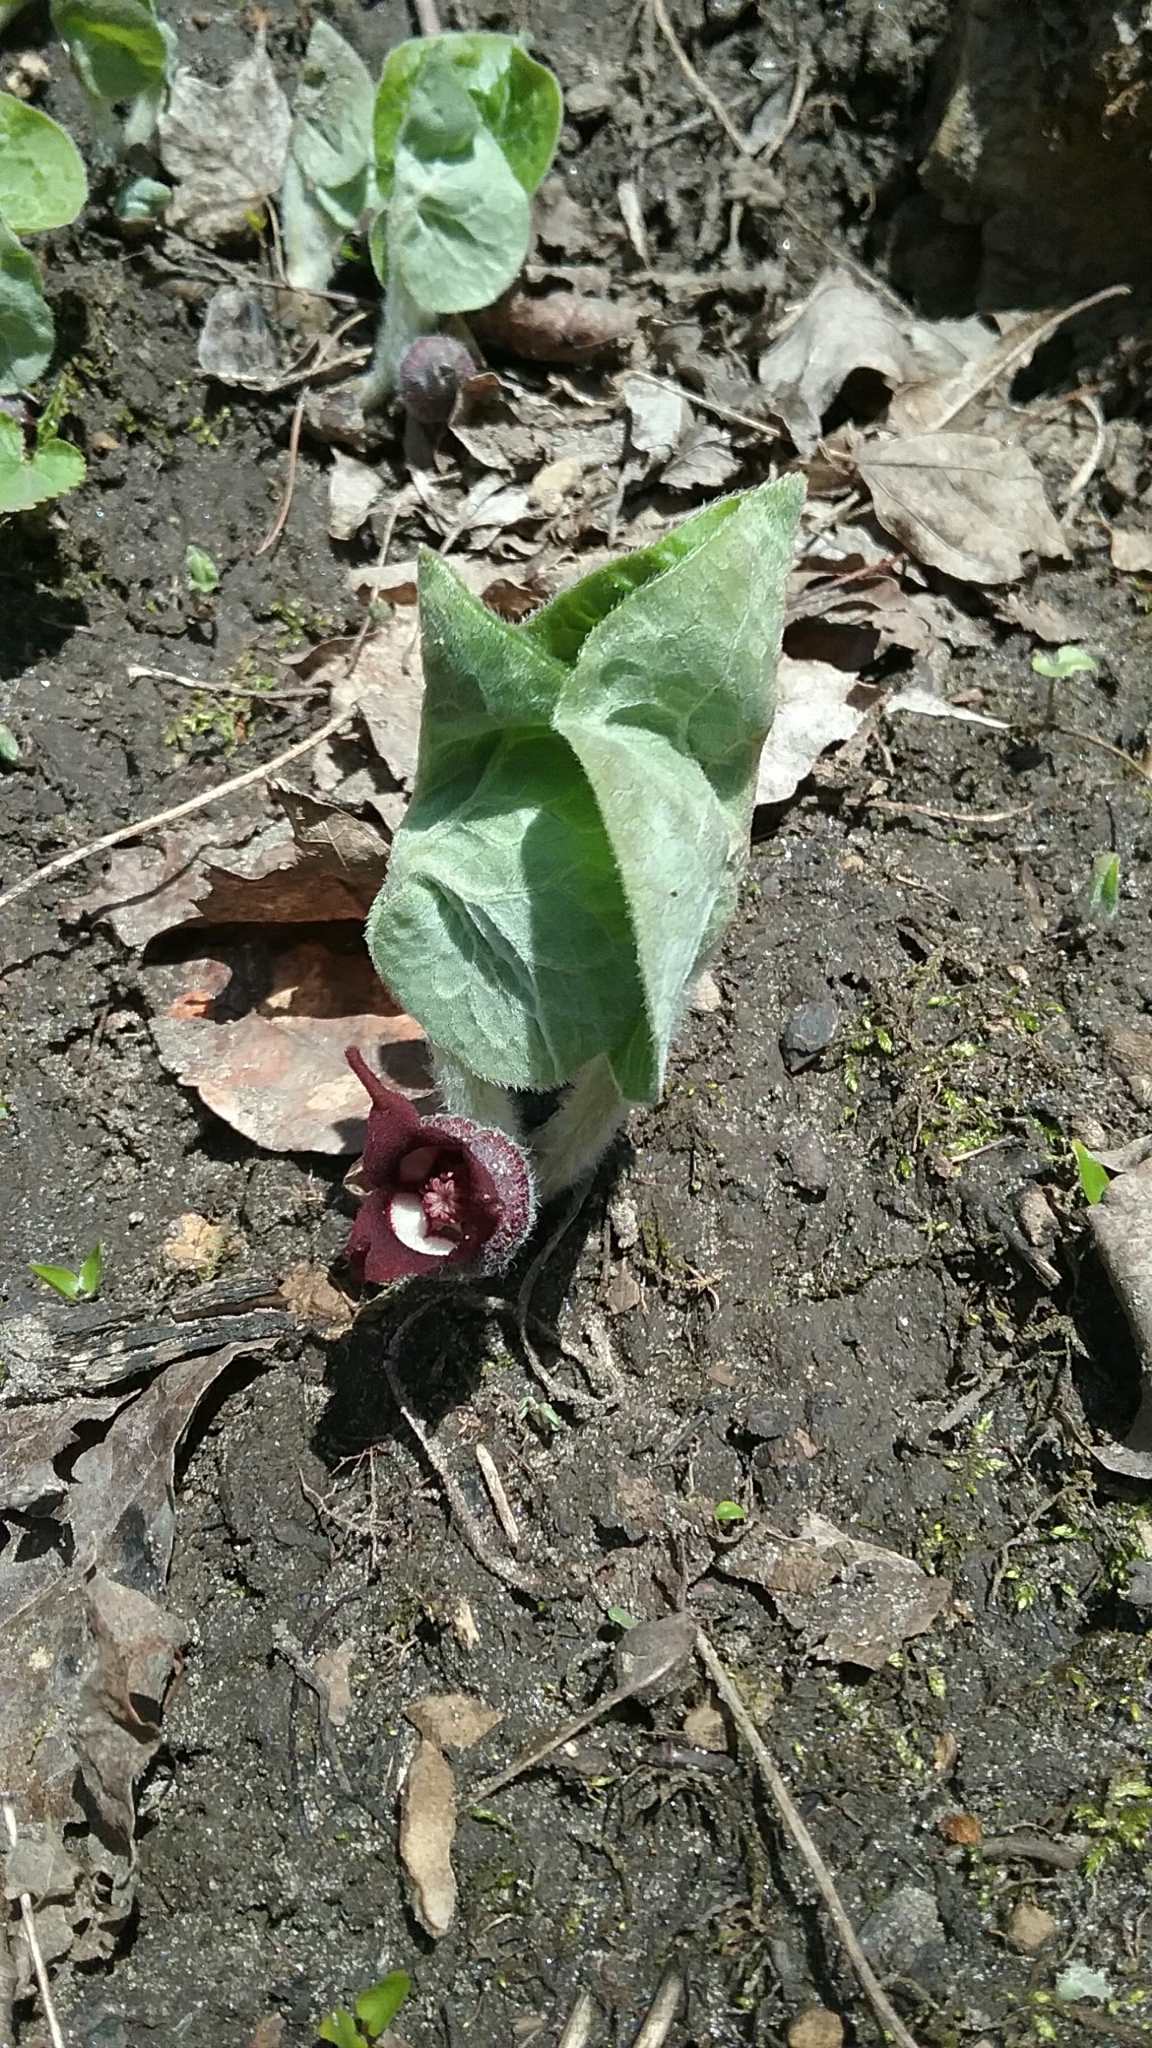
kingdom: Plantae
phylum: Tracheophyta
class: Magnoliopsida
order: Piperales
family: Aristolochiaceae
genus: Asarum
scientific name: Asarum canadense
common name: Wild ginger
